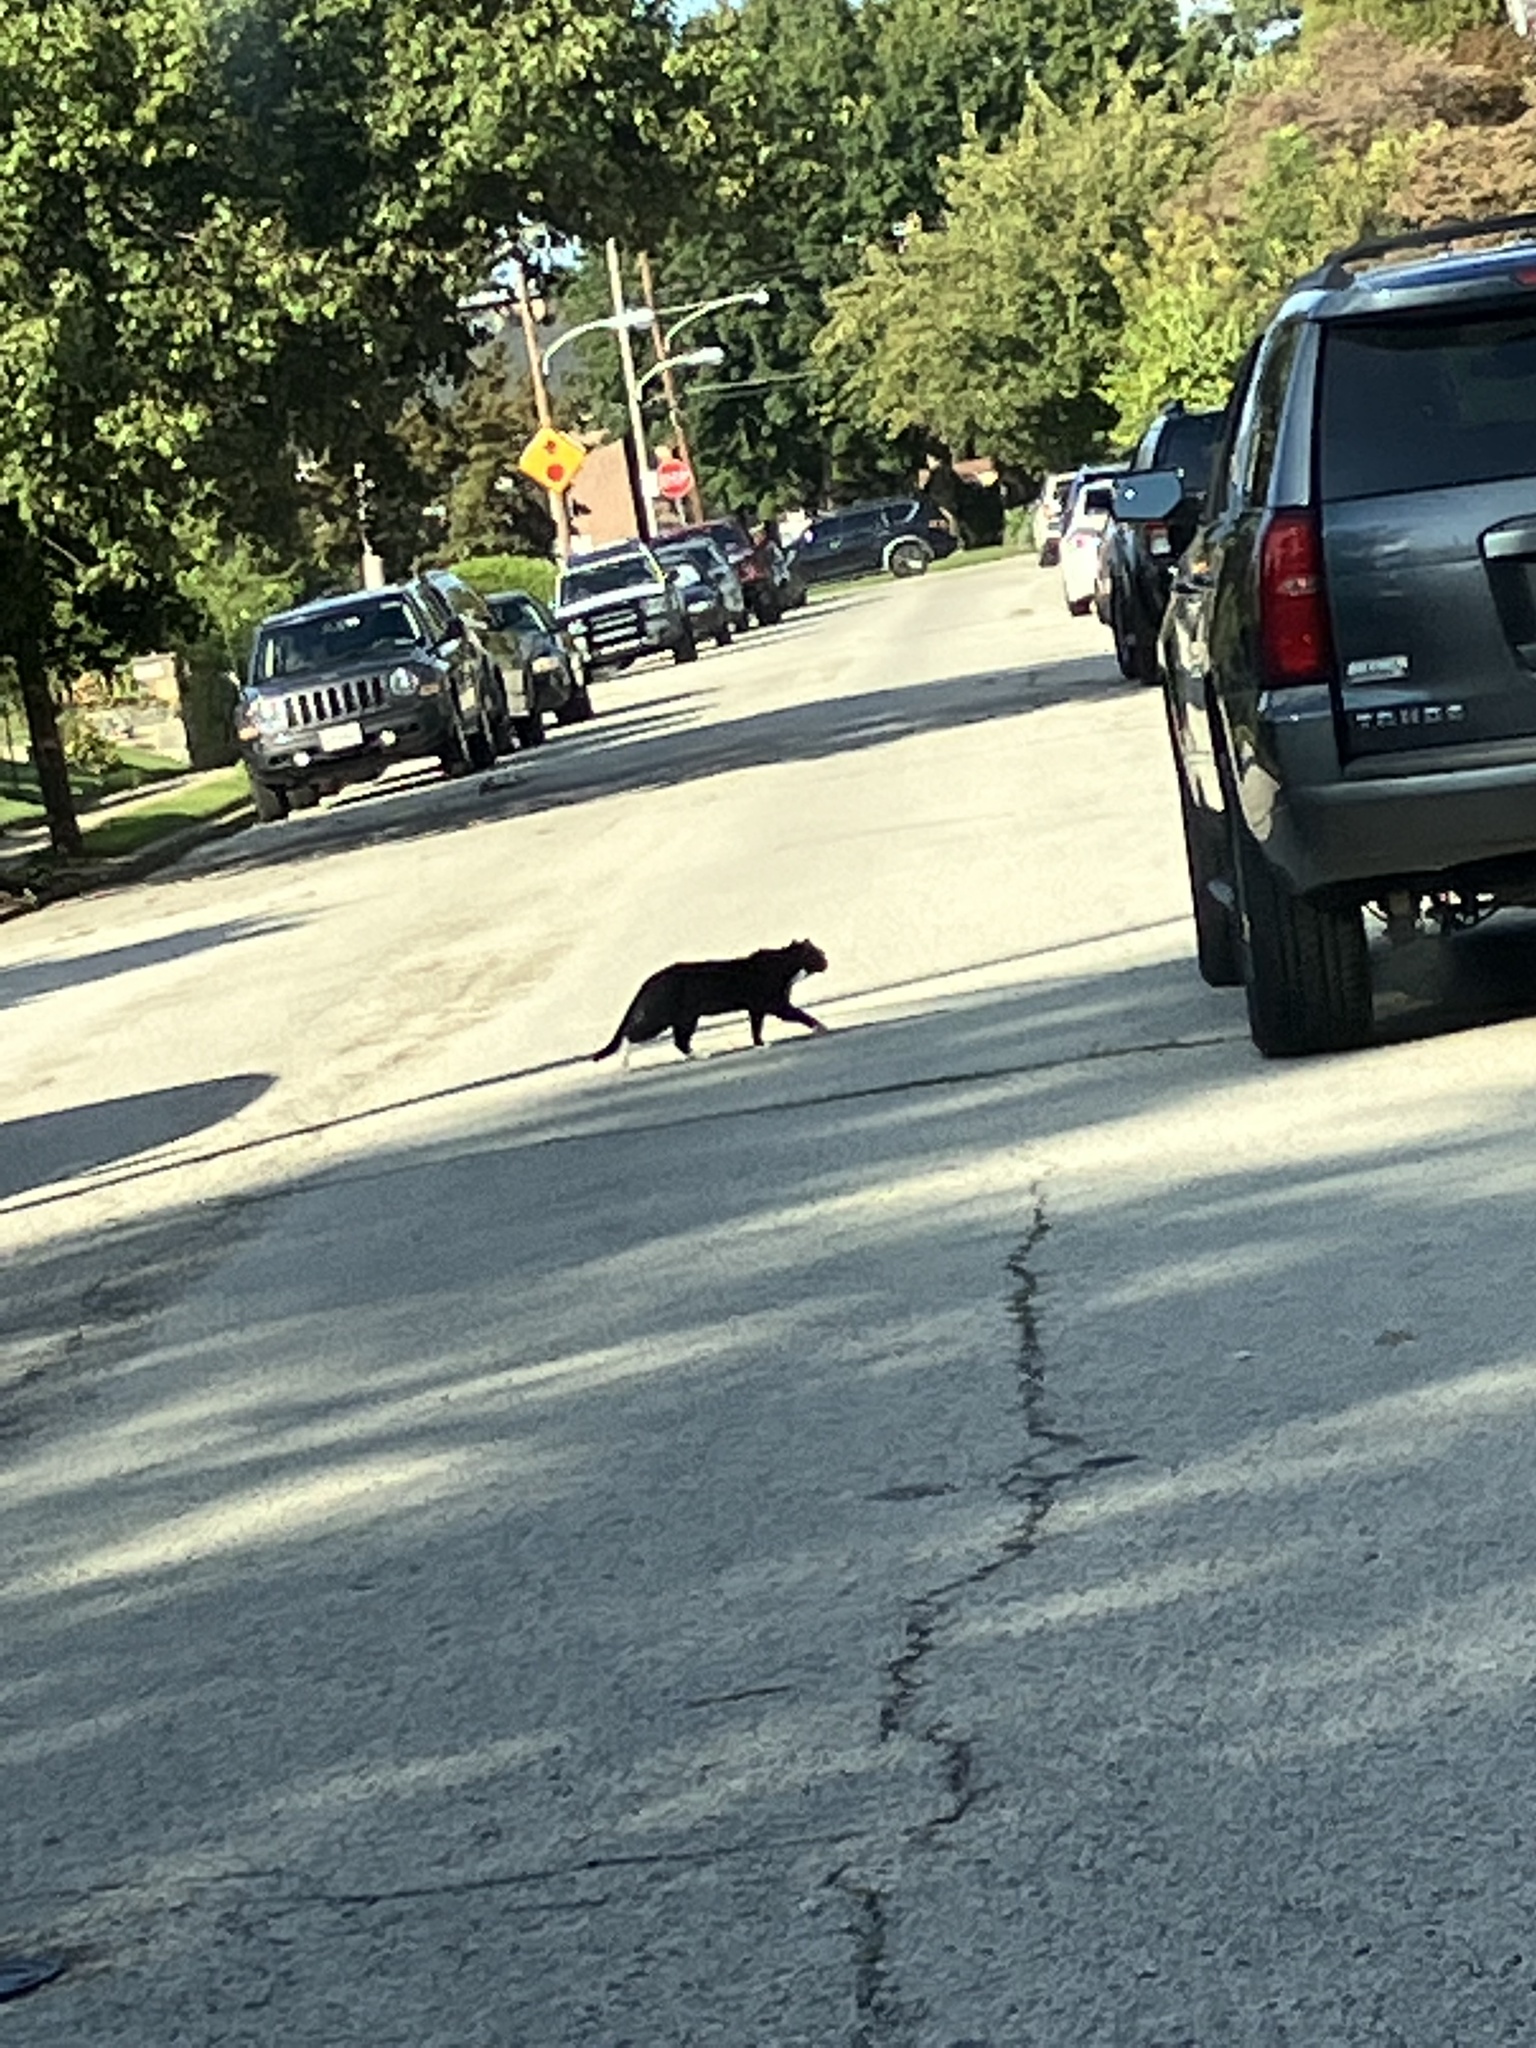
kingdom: Animalia
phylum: Chordata
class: Mammalia
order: Carnivora
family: Felidae
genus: Felis
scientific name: Felis catus
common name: Domestic cat
